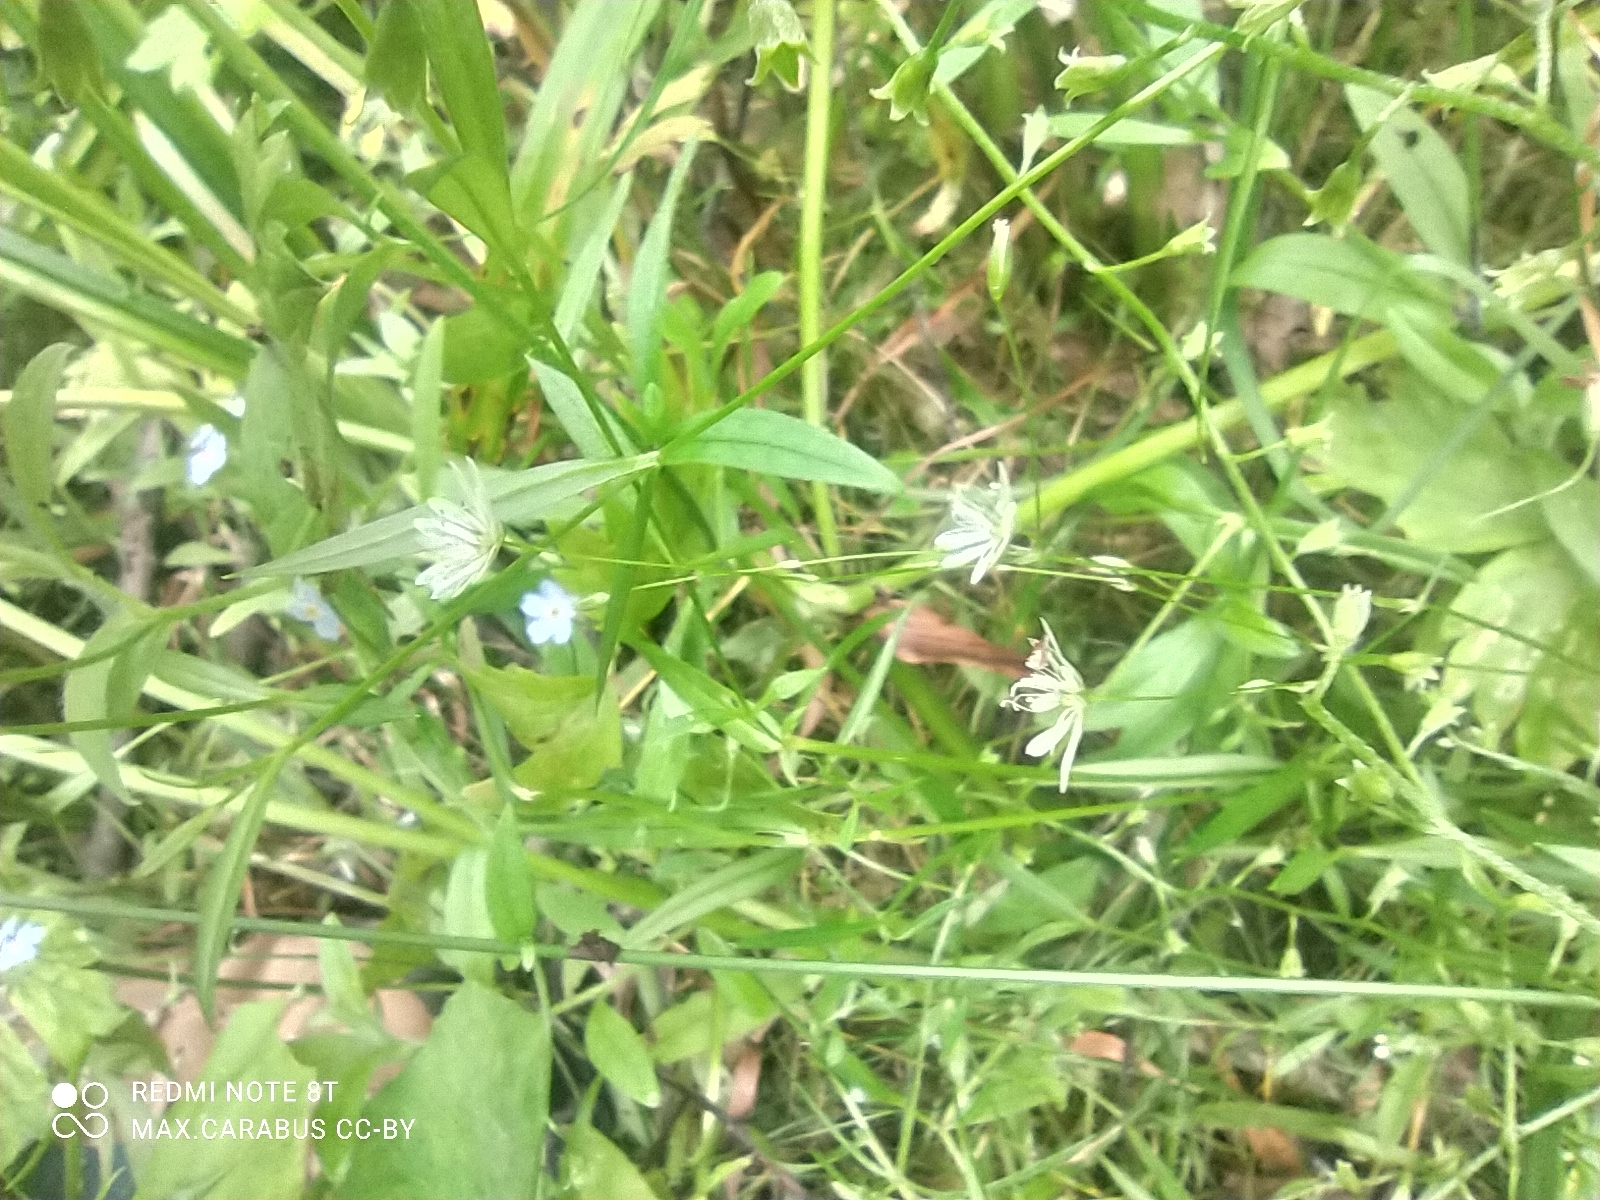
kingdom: Plantae
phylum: Tracheophyta
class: Magnoliopsida
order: Caryophyllales
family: Caryophyllaceae
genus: Stellaria
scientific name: Stellaria graminea
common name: Grass-like starwort
